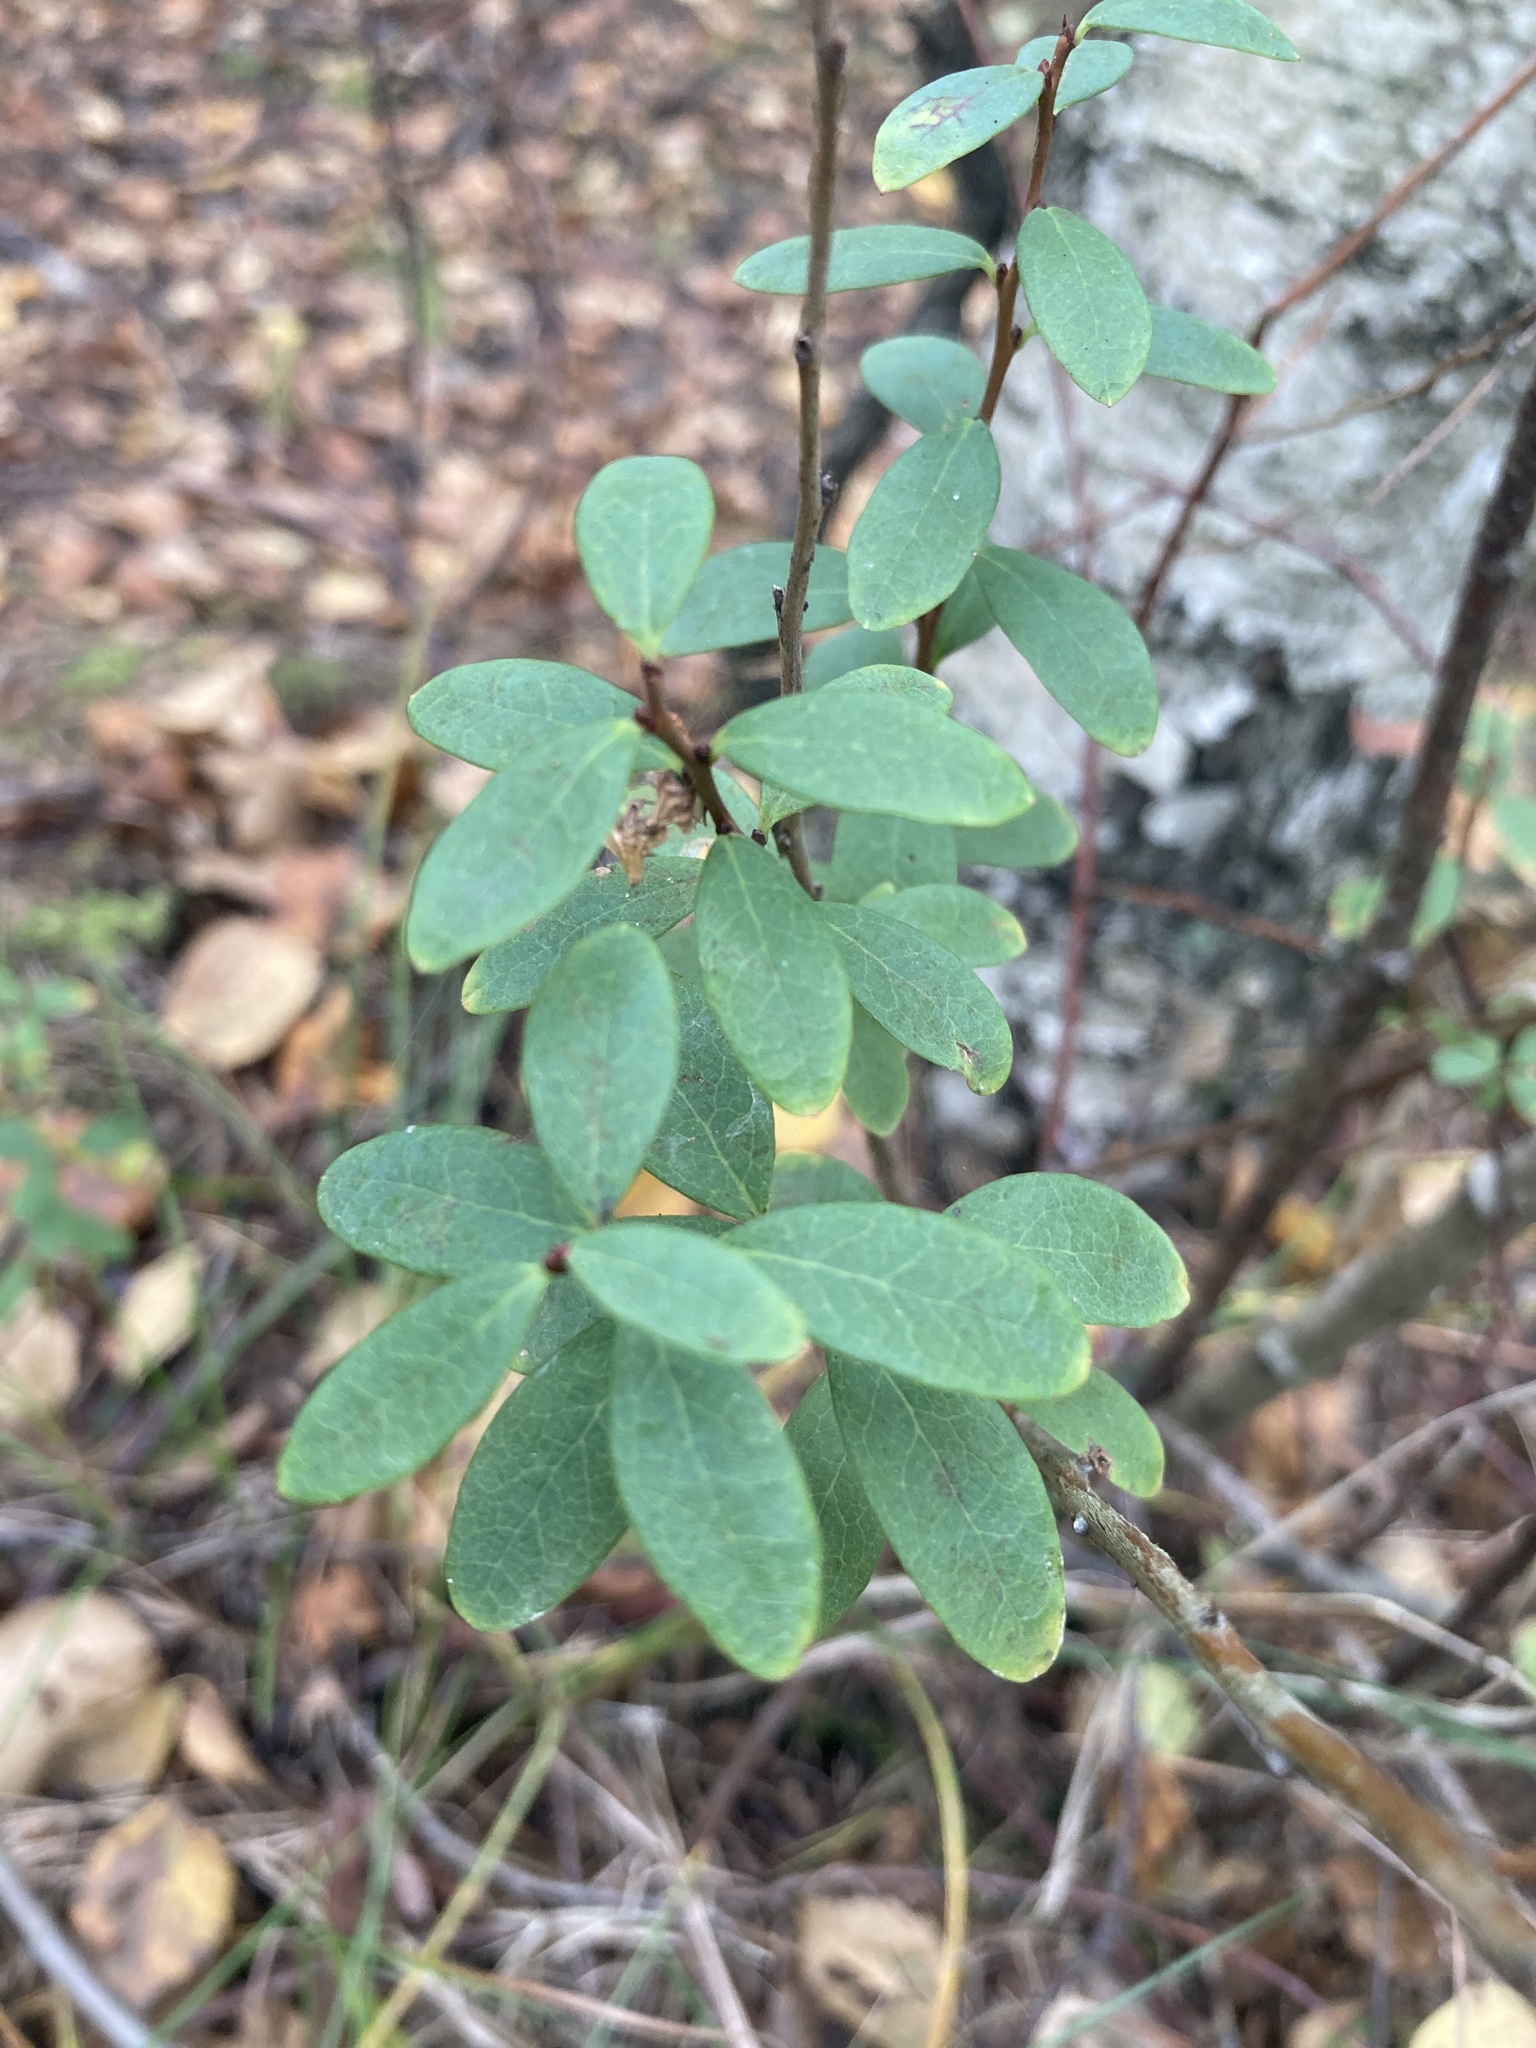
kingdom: Plantae
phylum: Tracheophyta
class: Magnoliopsida
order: Ericales
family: Ericaceae
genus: Vaccinium
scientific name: Vaccinium uliginosum
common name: Bog bilberry
